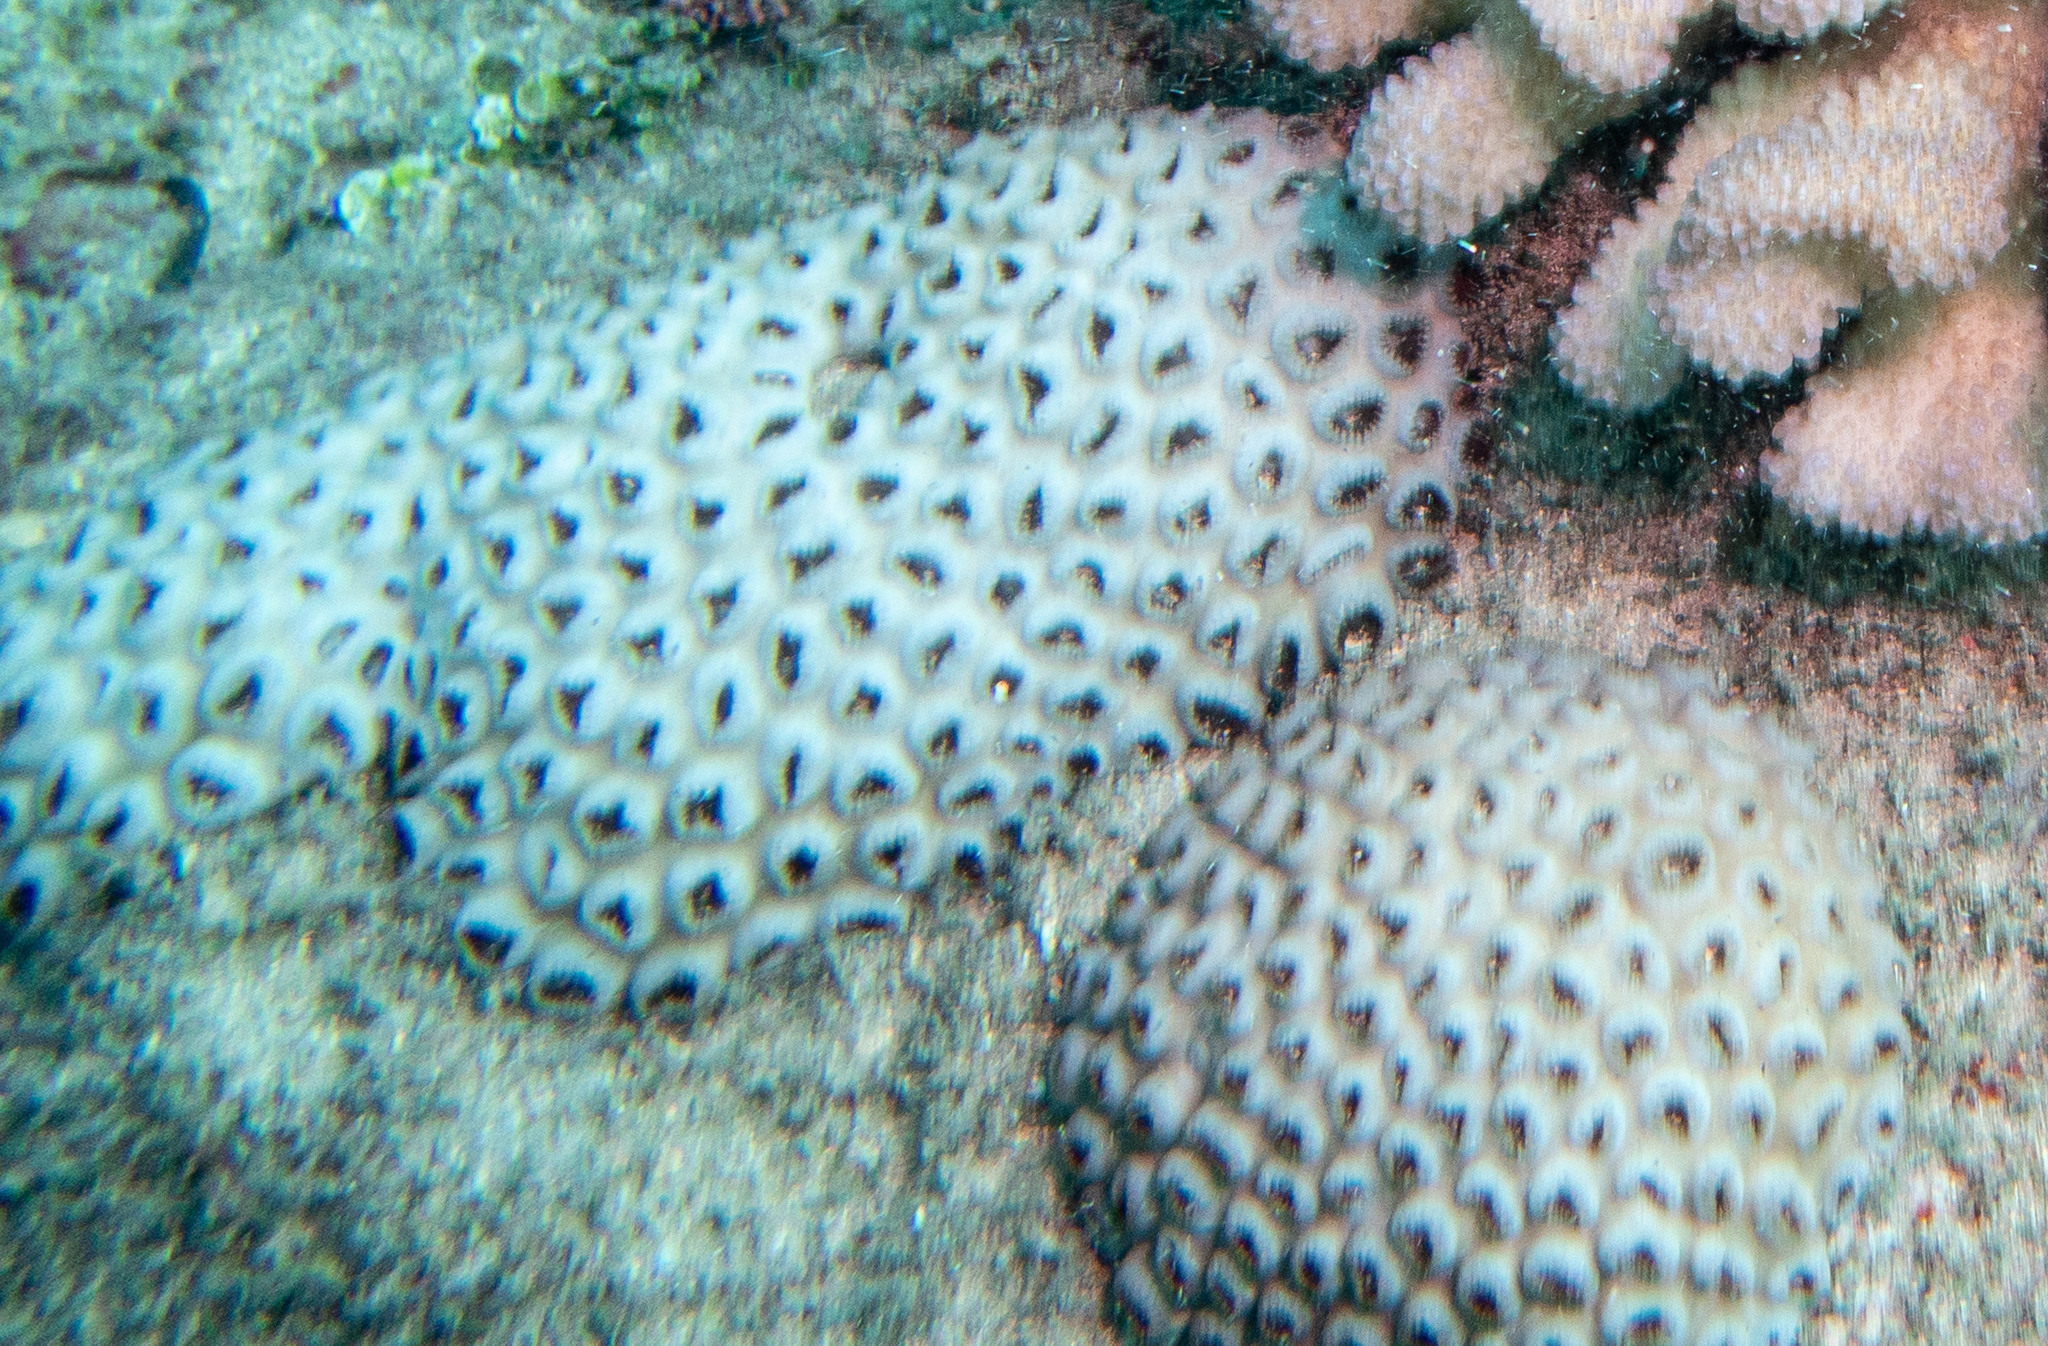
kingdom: Animalia
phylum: Cnidaria
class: Anthozoa
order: Zoantharia
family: Sphenopidae
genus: Palythoa
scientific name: Palythoa tuberculosa
